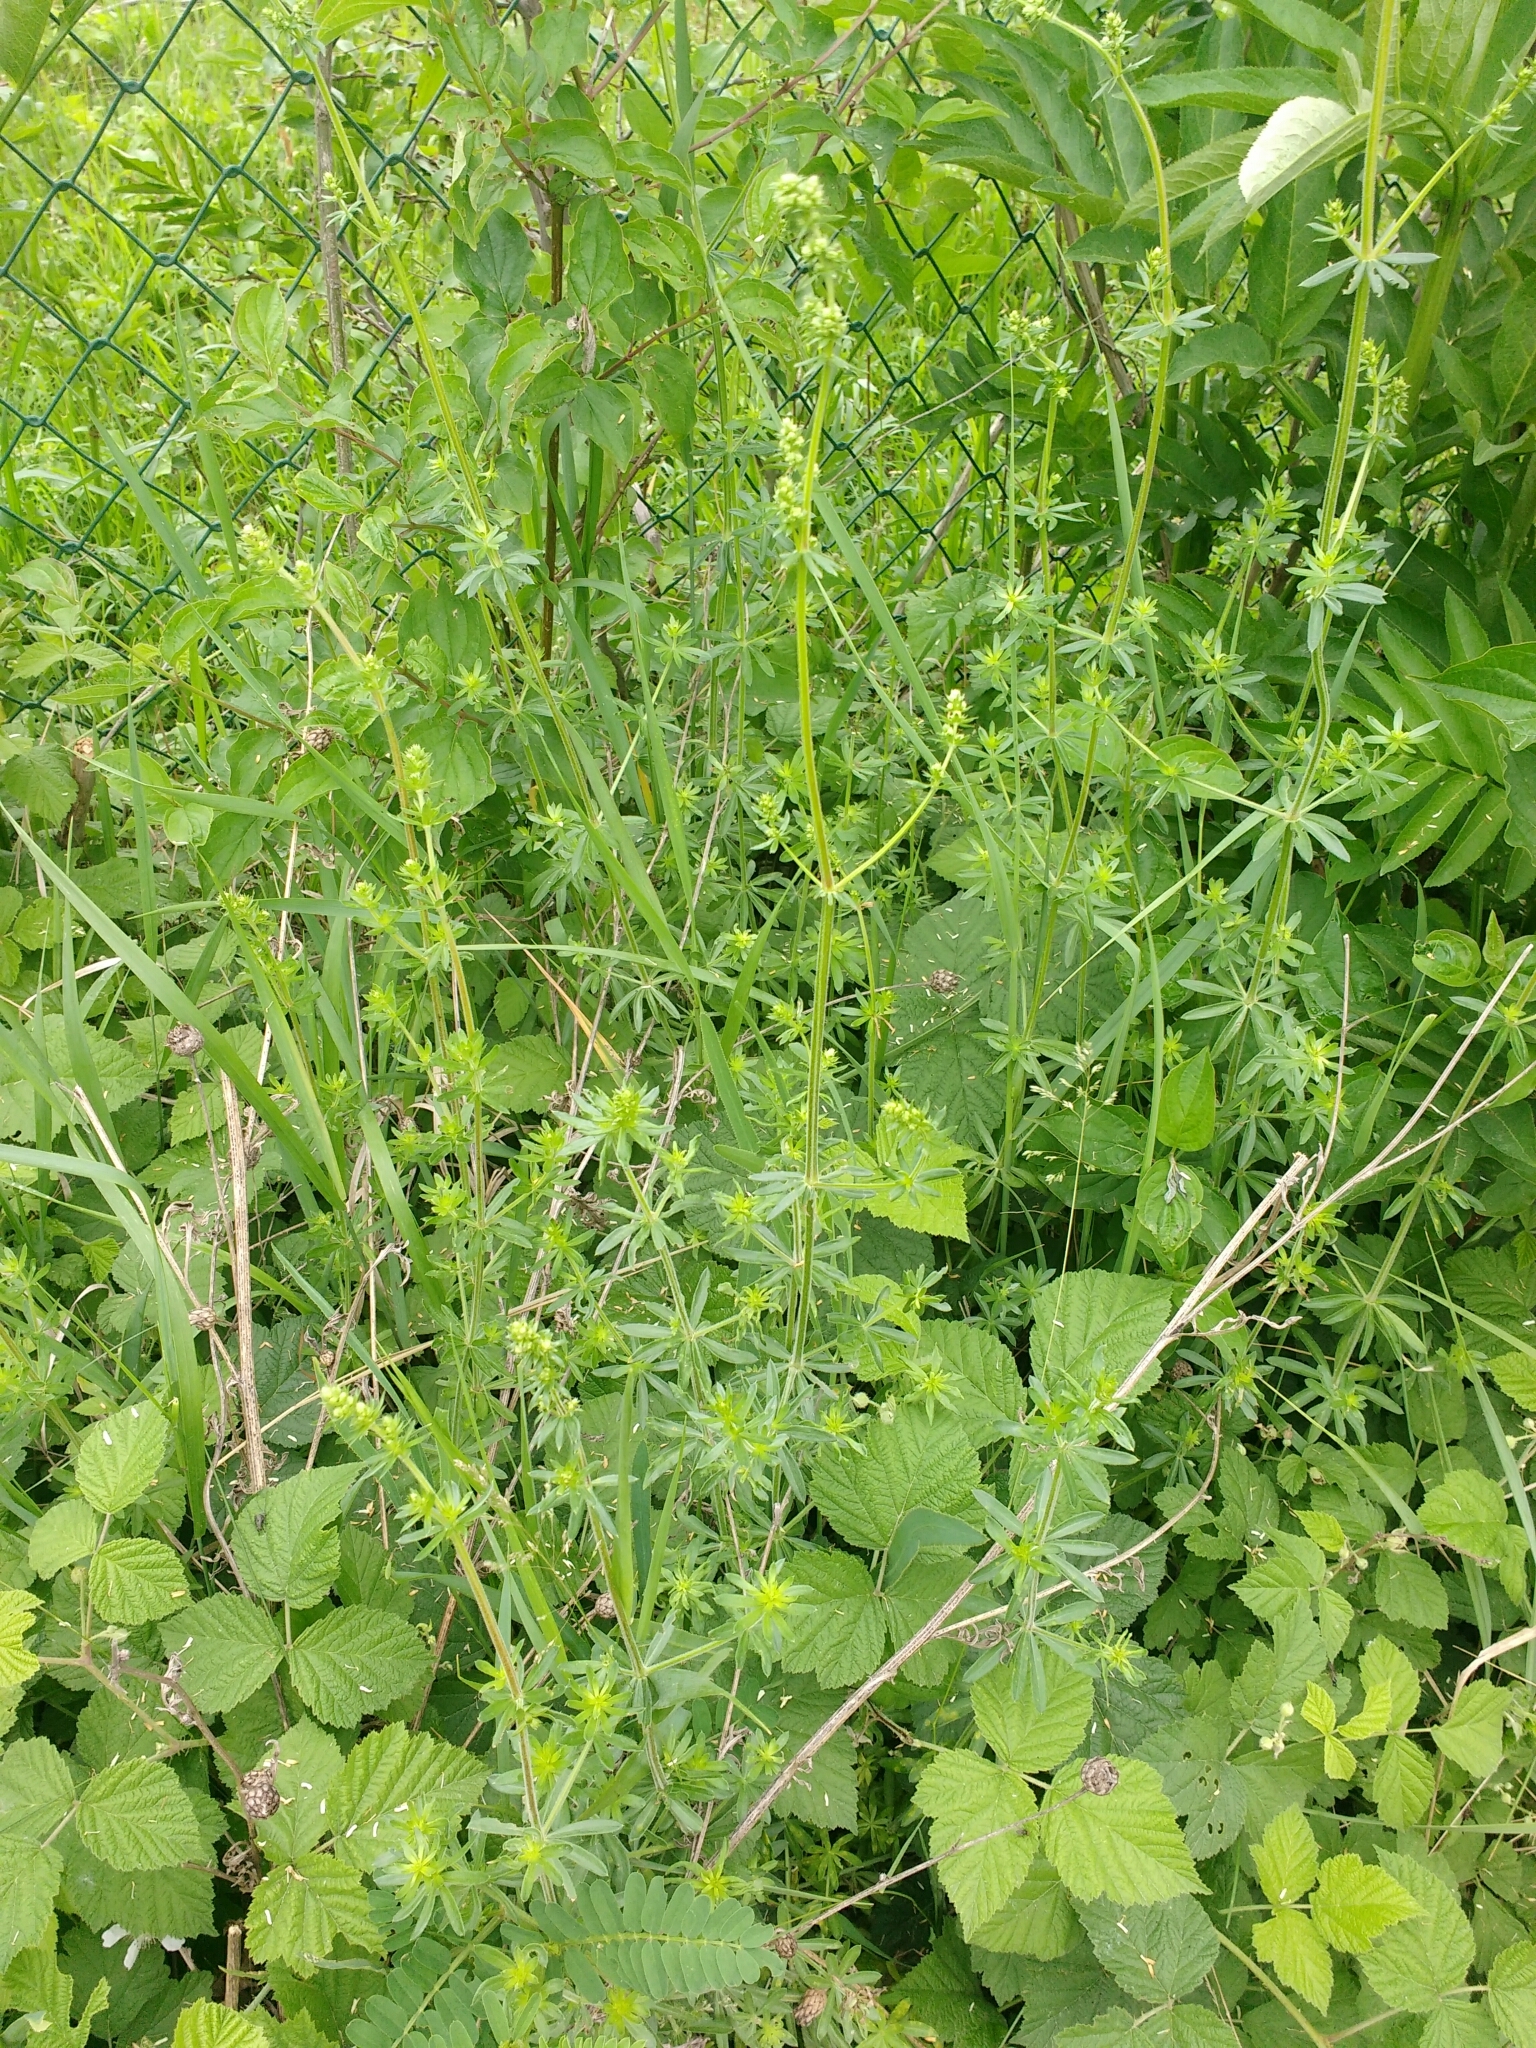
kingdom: Plantae
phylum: Tracheophyta
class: Magnoliopsida
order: Gentianales
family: Rubiaceae
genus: Galium
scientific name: Galium album
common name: White bedstraw
